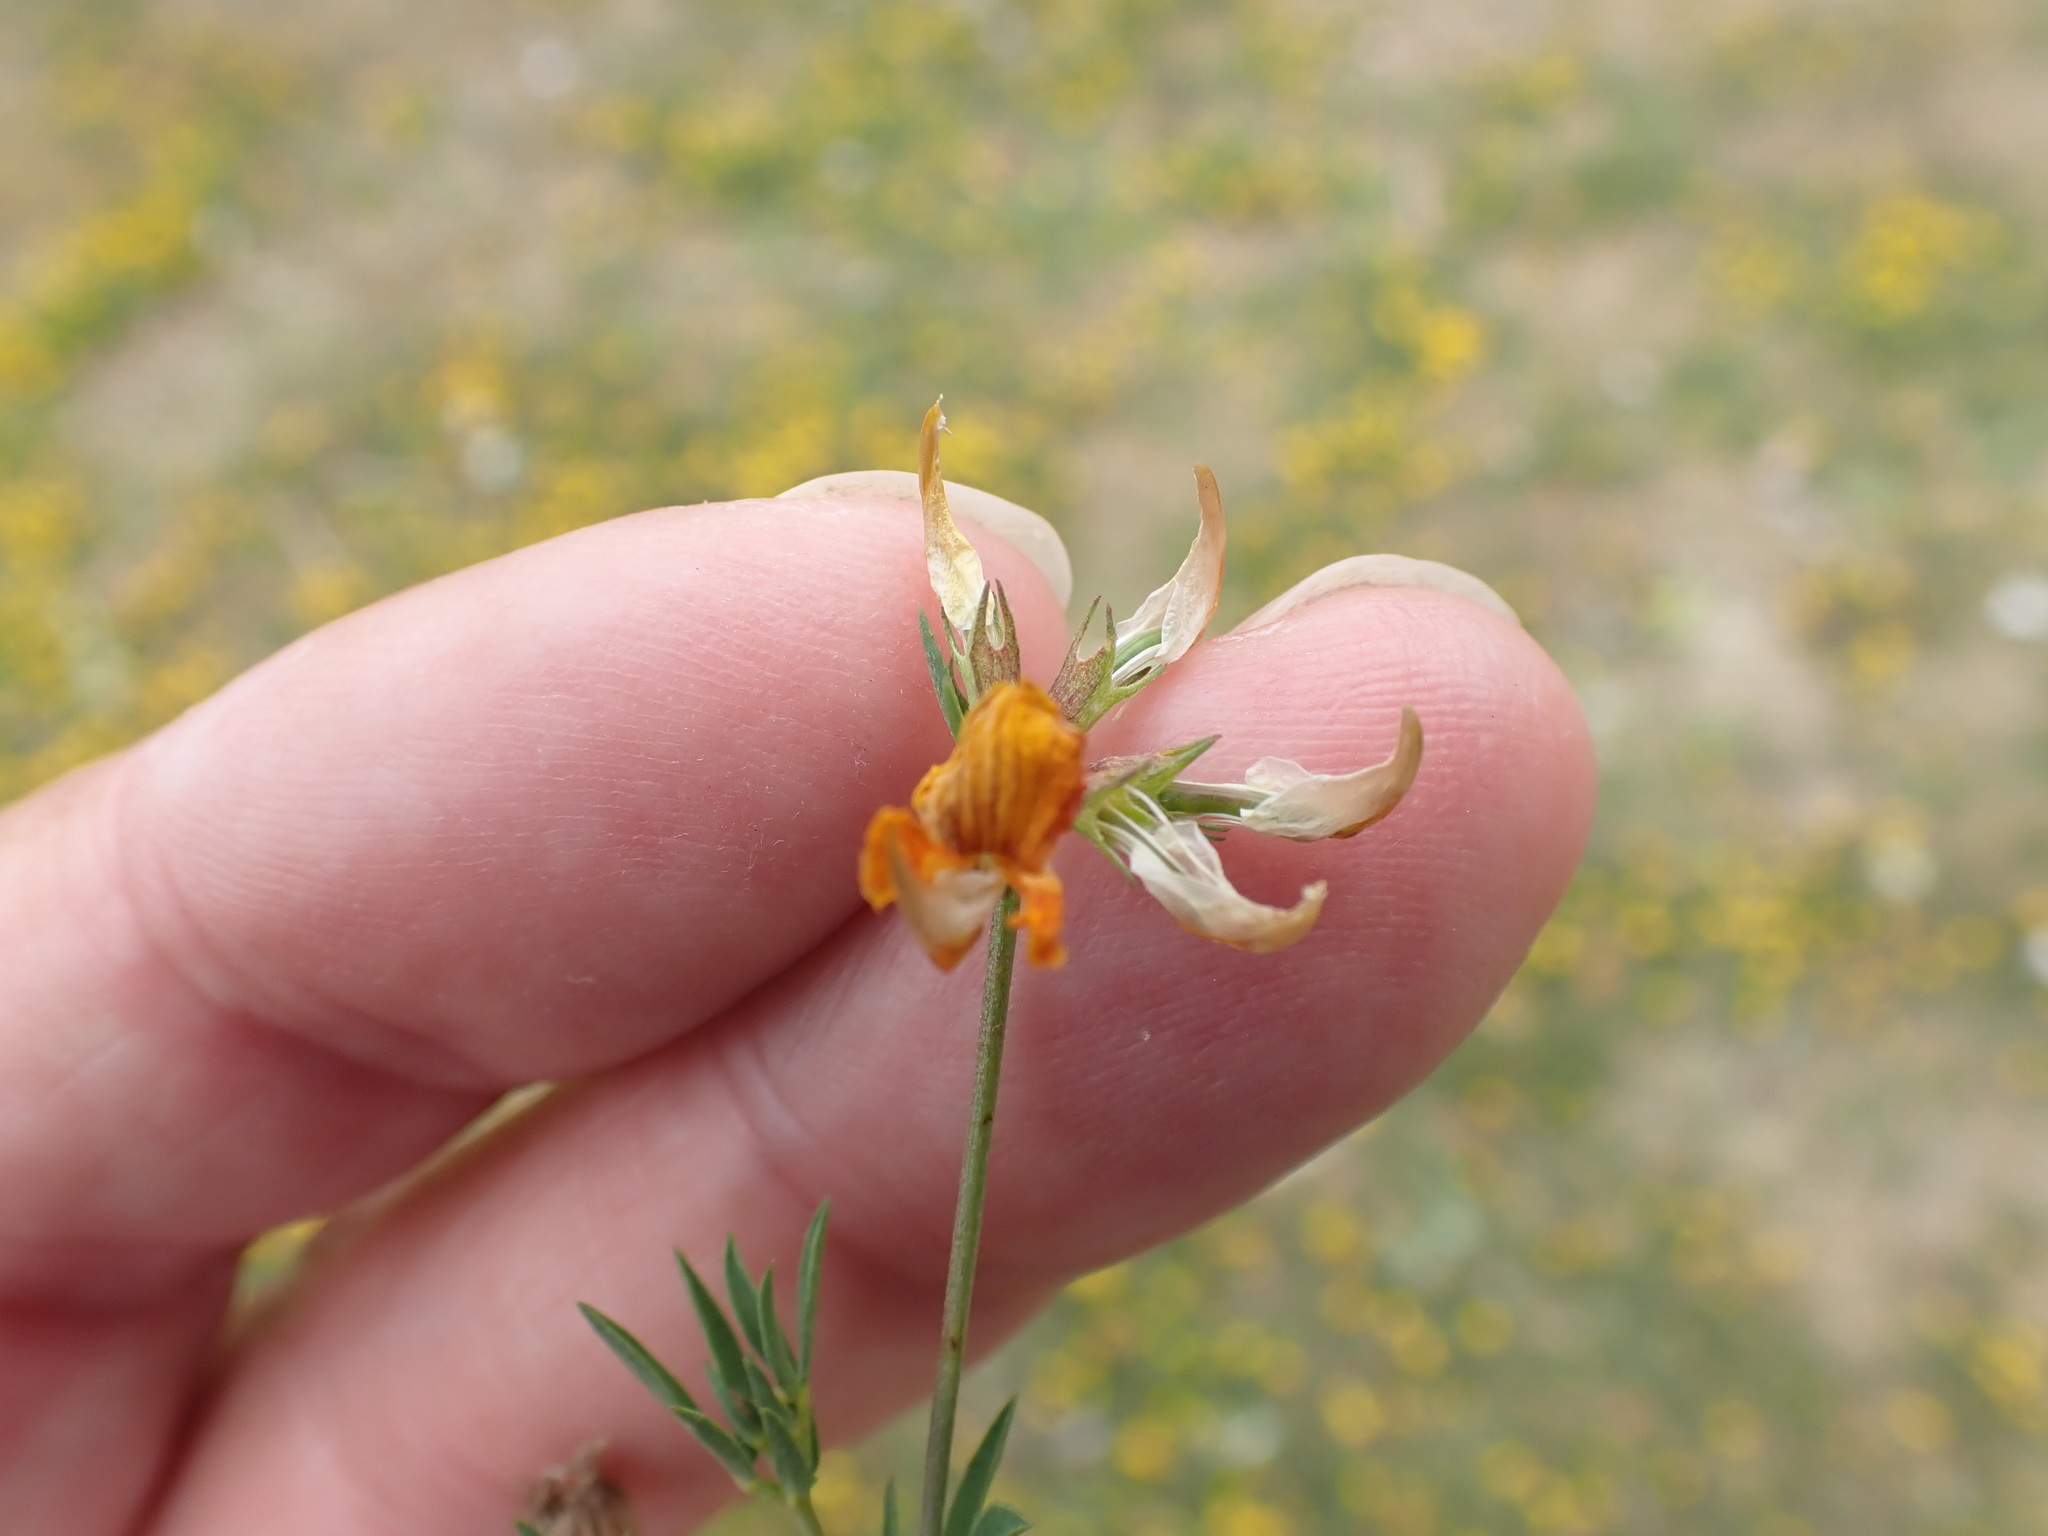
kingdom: Plantae
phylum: Tracheophyta
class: Magnoliopsida
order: Fabales
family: Fabaceae
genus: Lotus
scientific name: Lotus tenuis
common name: Narrow-leaved bird's-foot-trefoil
